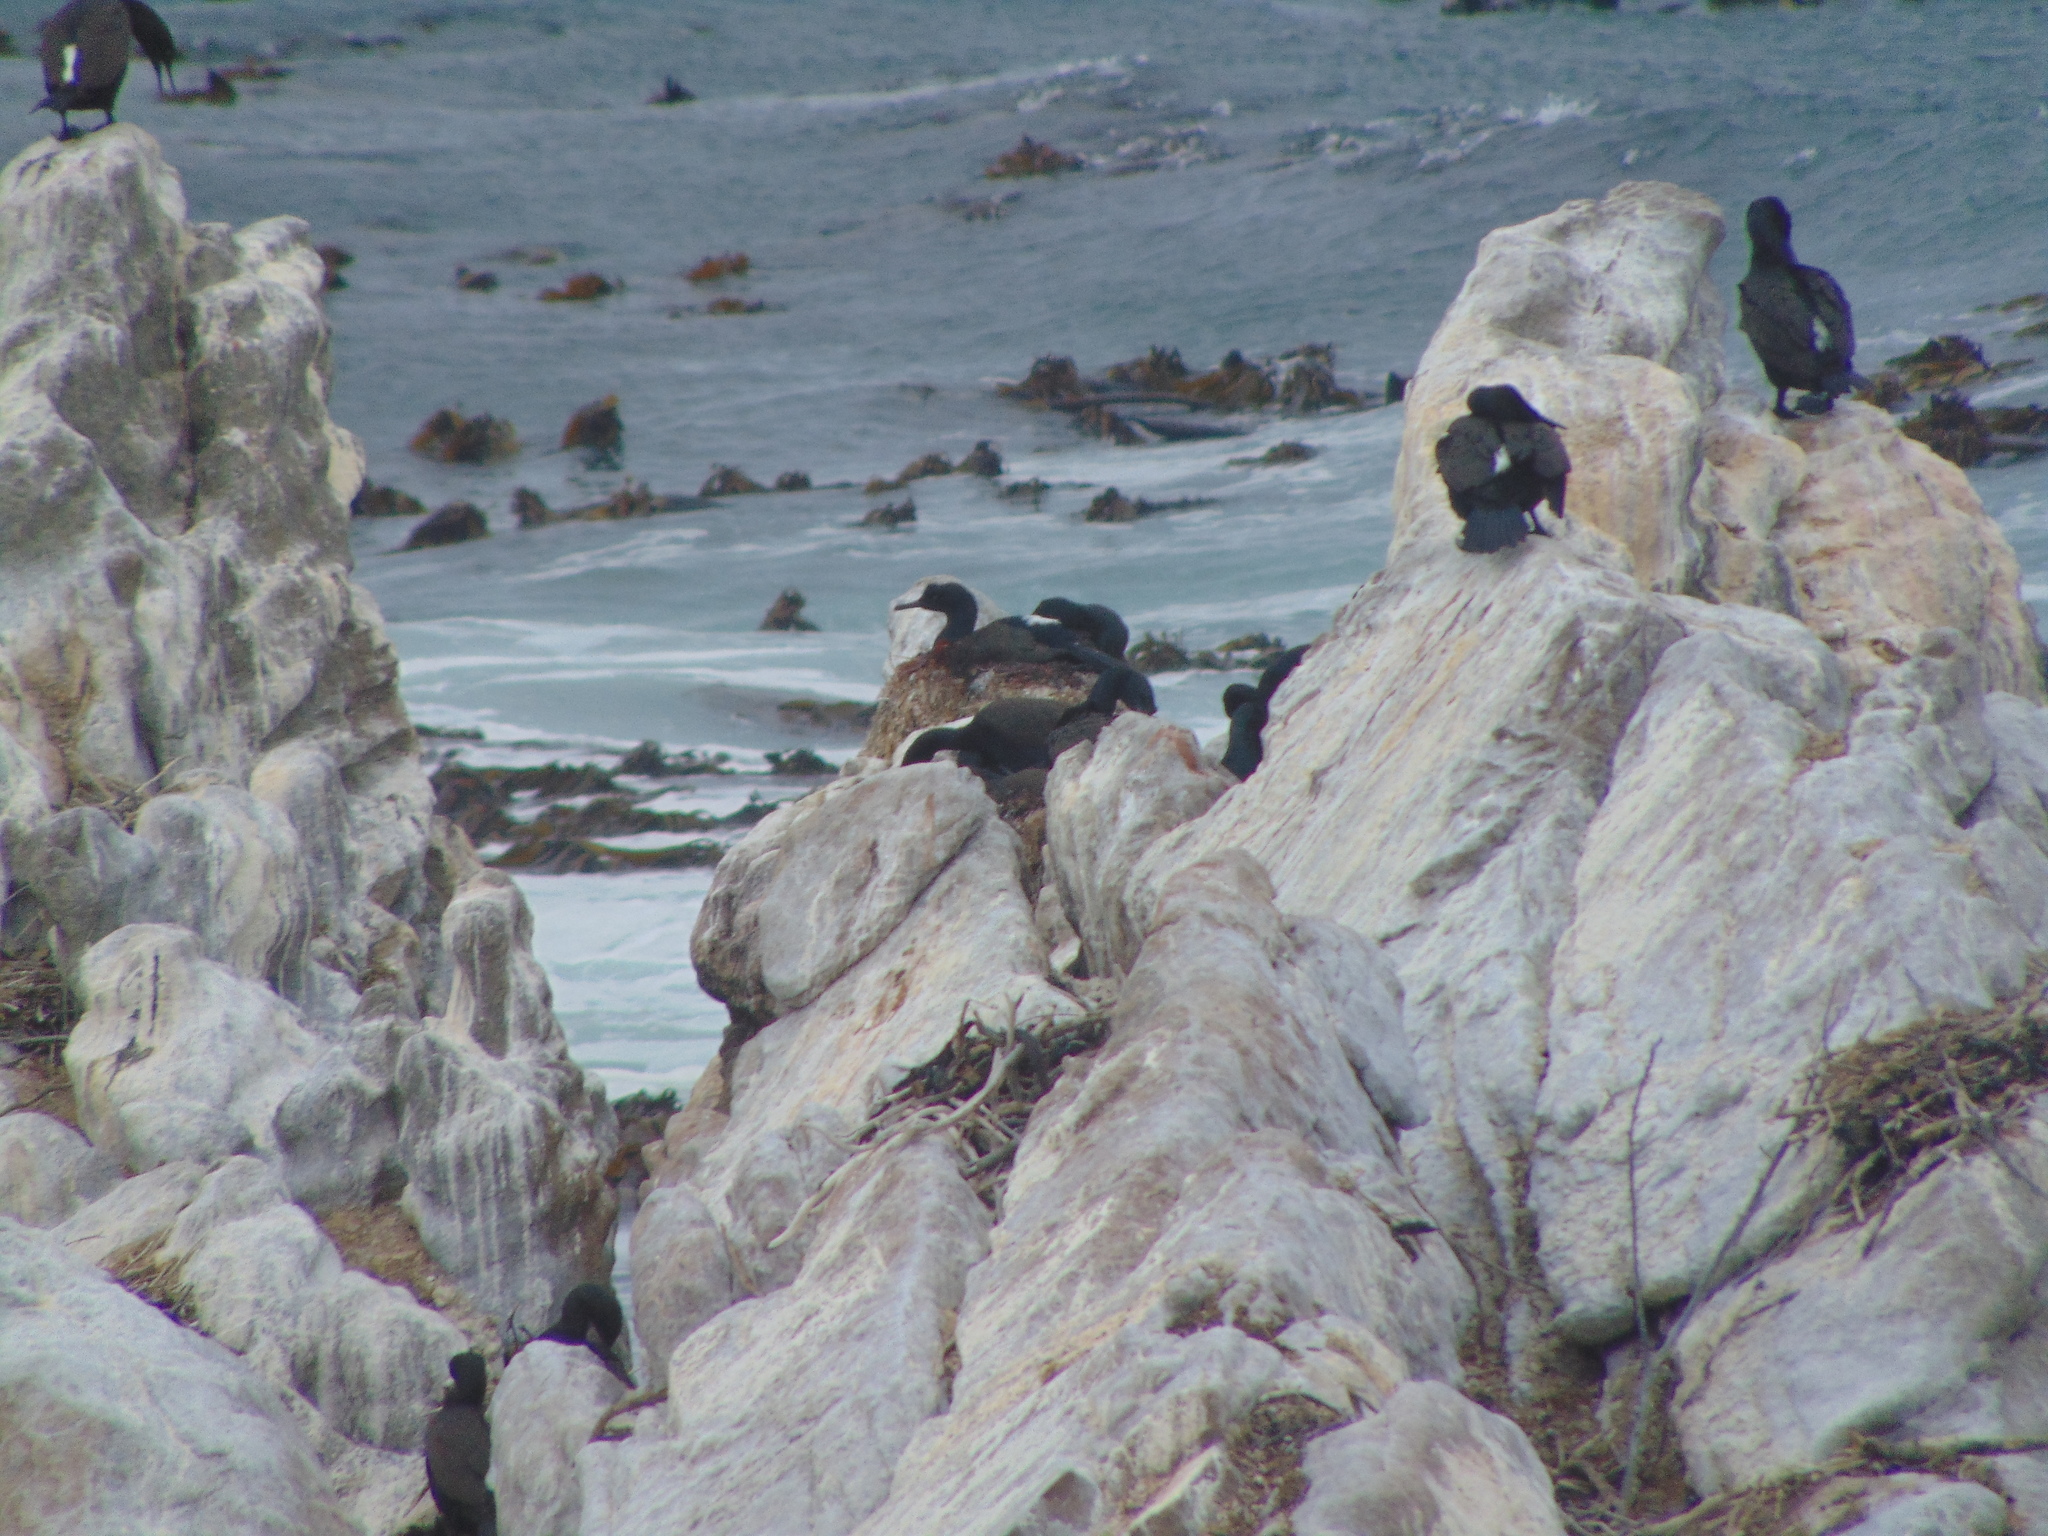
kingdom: Animalia
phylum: Chordata
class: Aves
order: Suliformes
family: Phalacrocoracidae
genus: Phalacrocorax
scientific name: Phalacrocorax neglectus
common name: Bank cormorant
